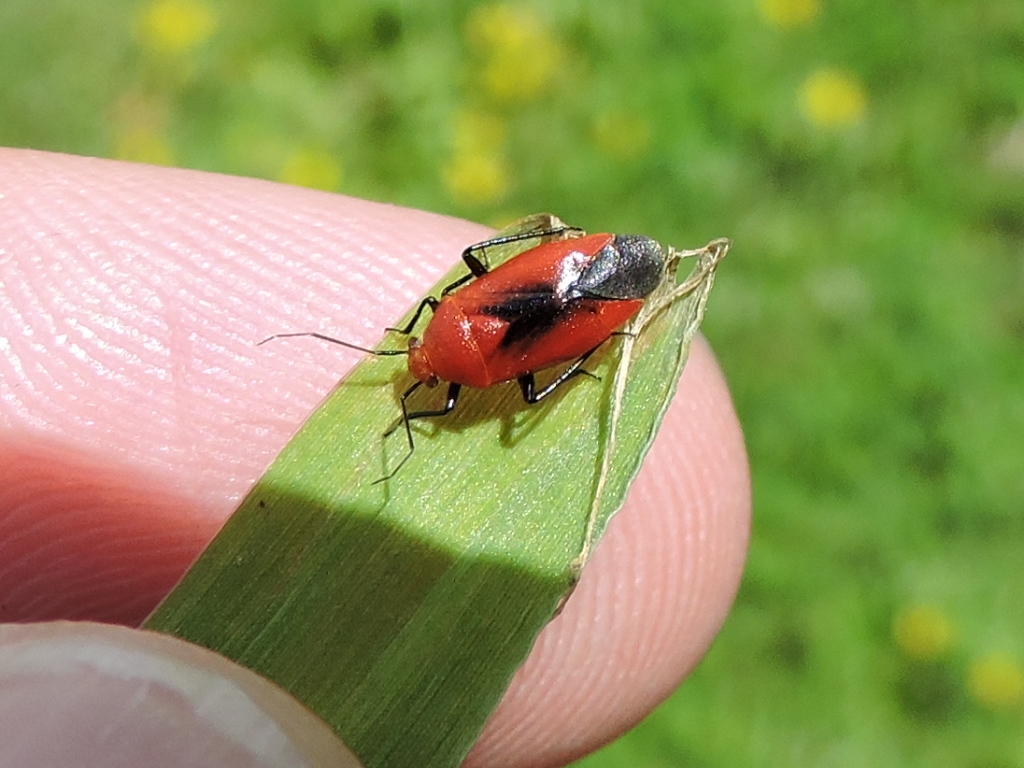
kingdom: Animalia
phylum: Arthropoda
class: Insecta
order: Hemiptera
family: Miridae
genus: Tropidosteptes
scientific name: Tropidosteptes cardinalis
